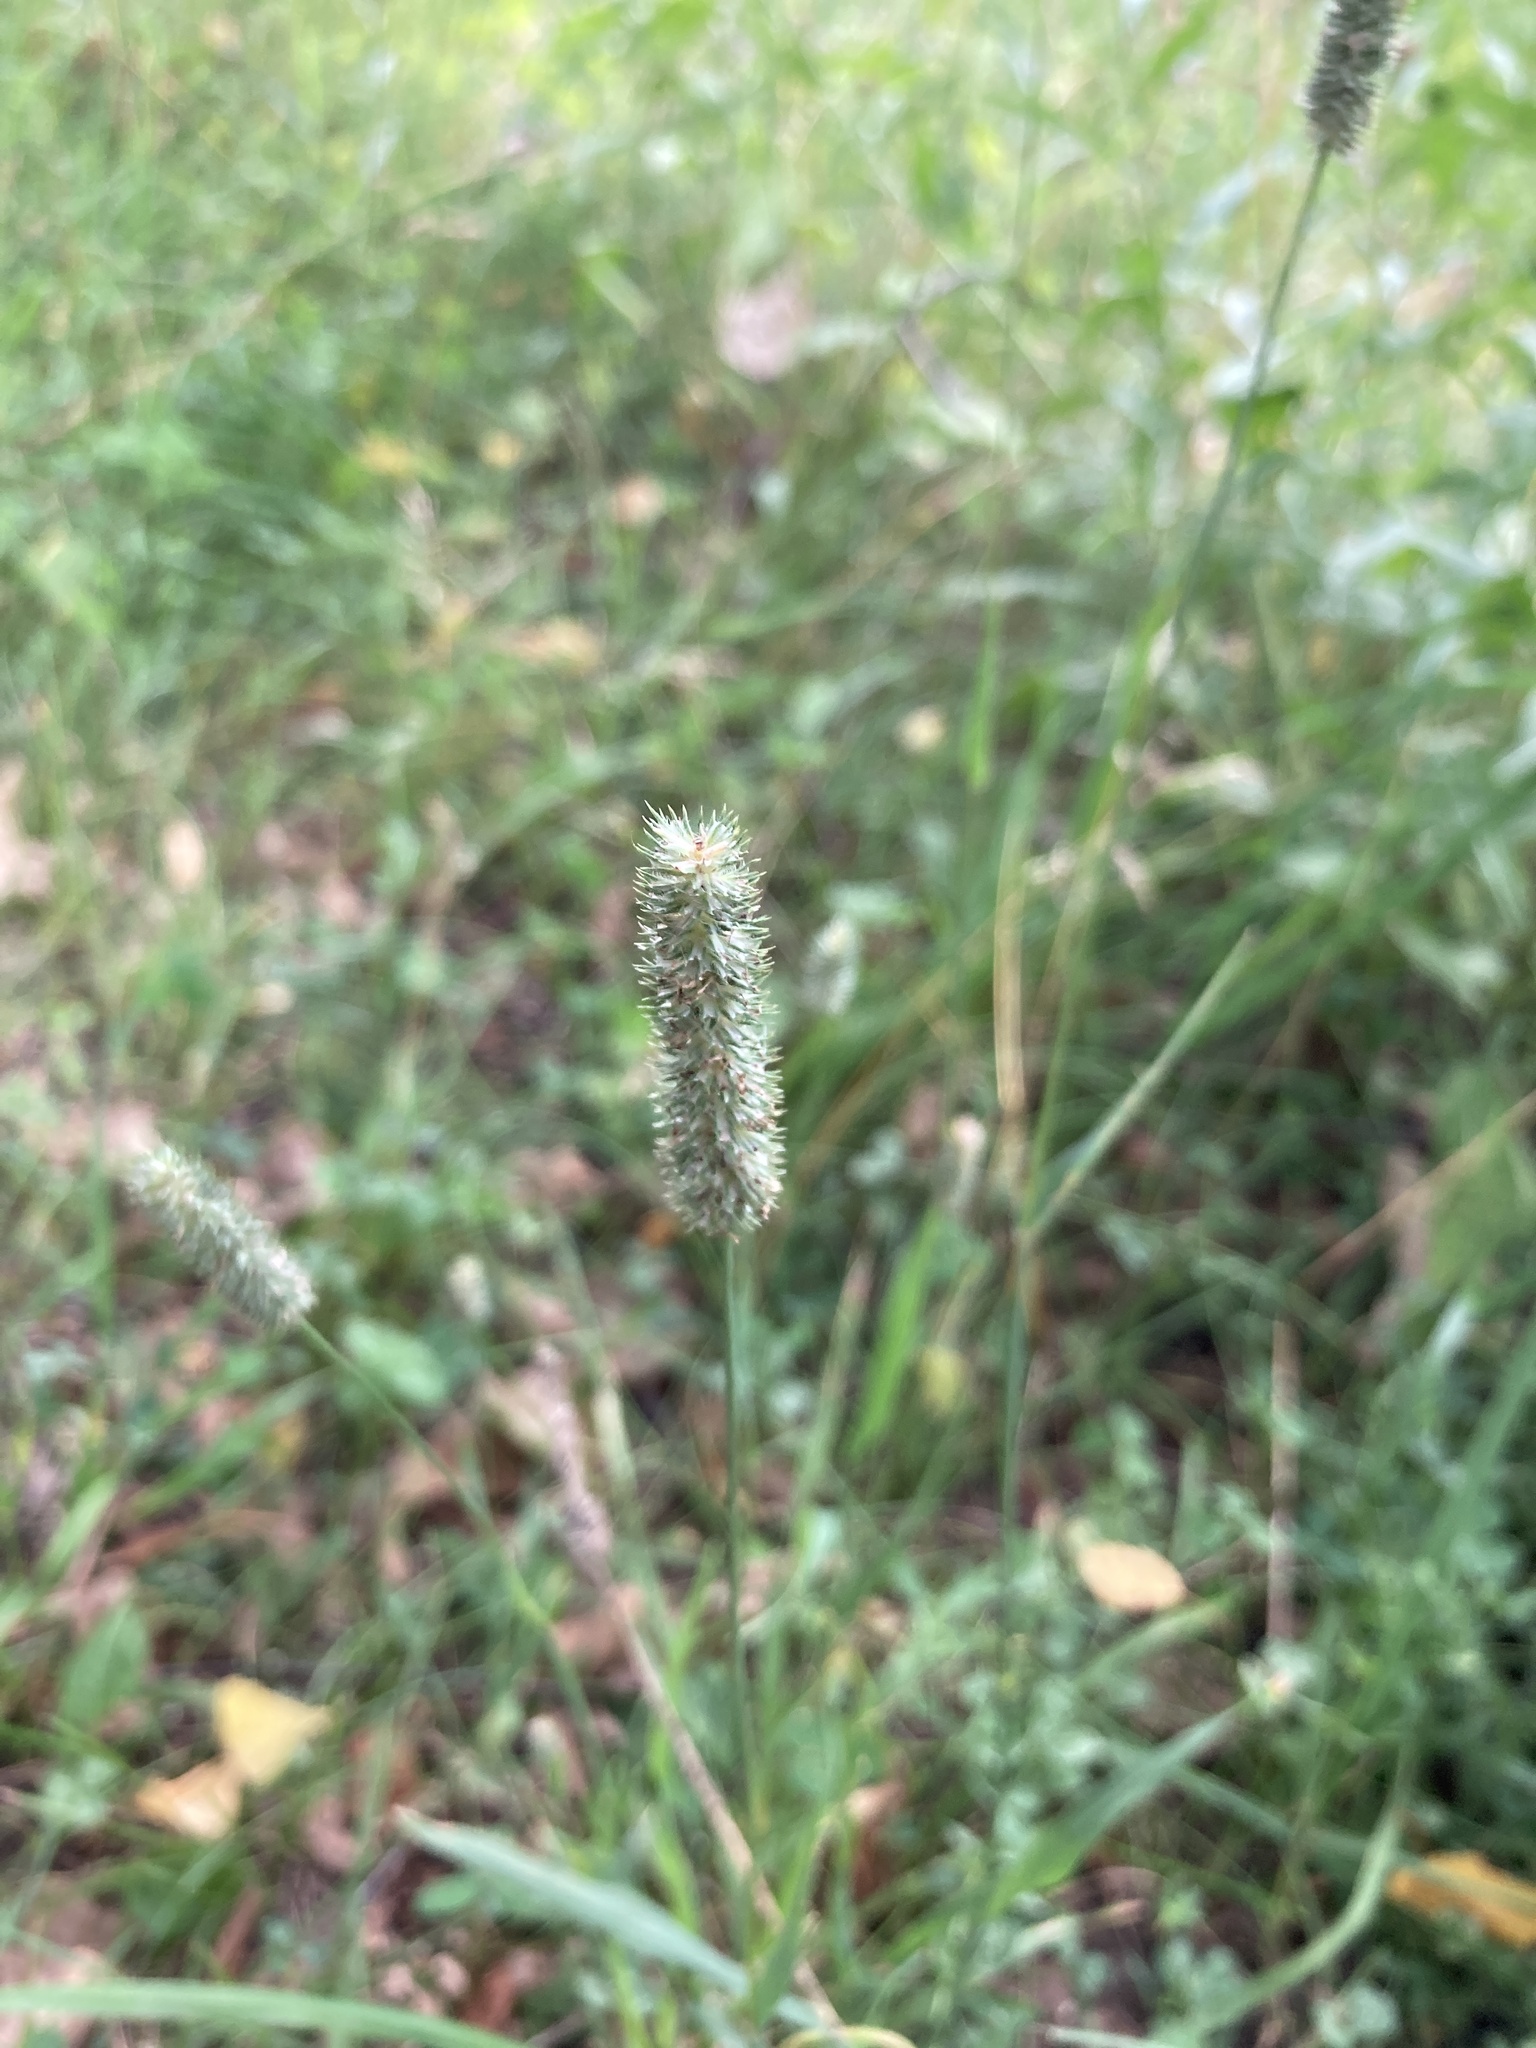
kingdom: Plantae
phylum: Tracheophyta
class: Liliopsida
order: Poales
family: Poaceae
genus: Phleum
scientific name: Phleum pratense
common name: Timothy grass
